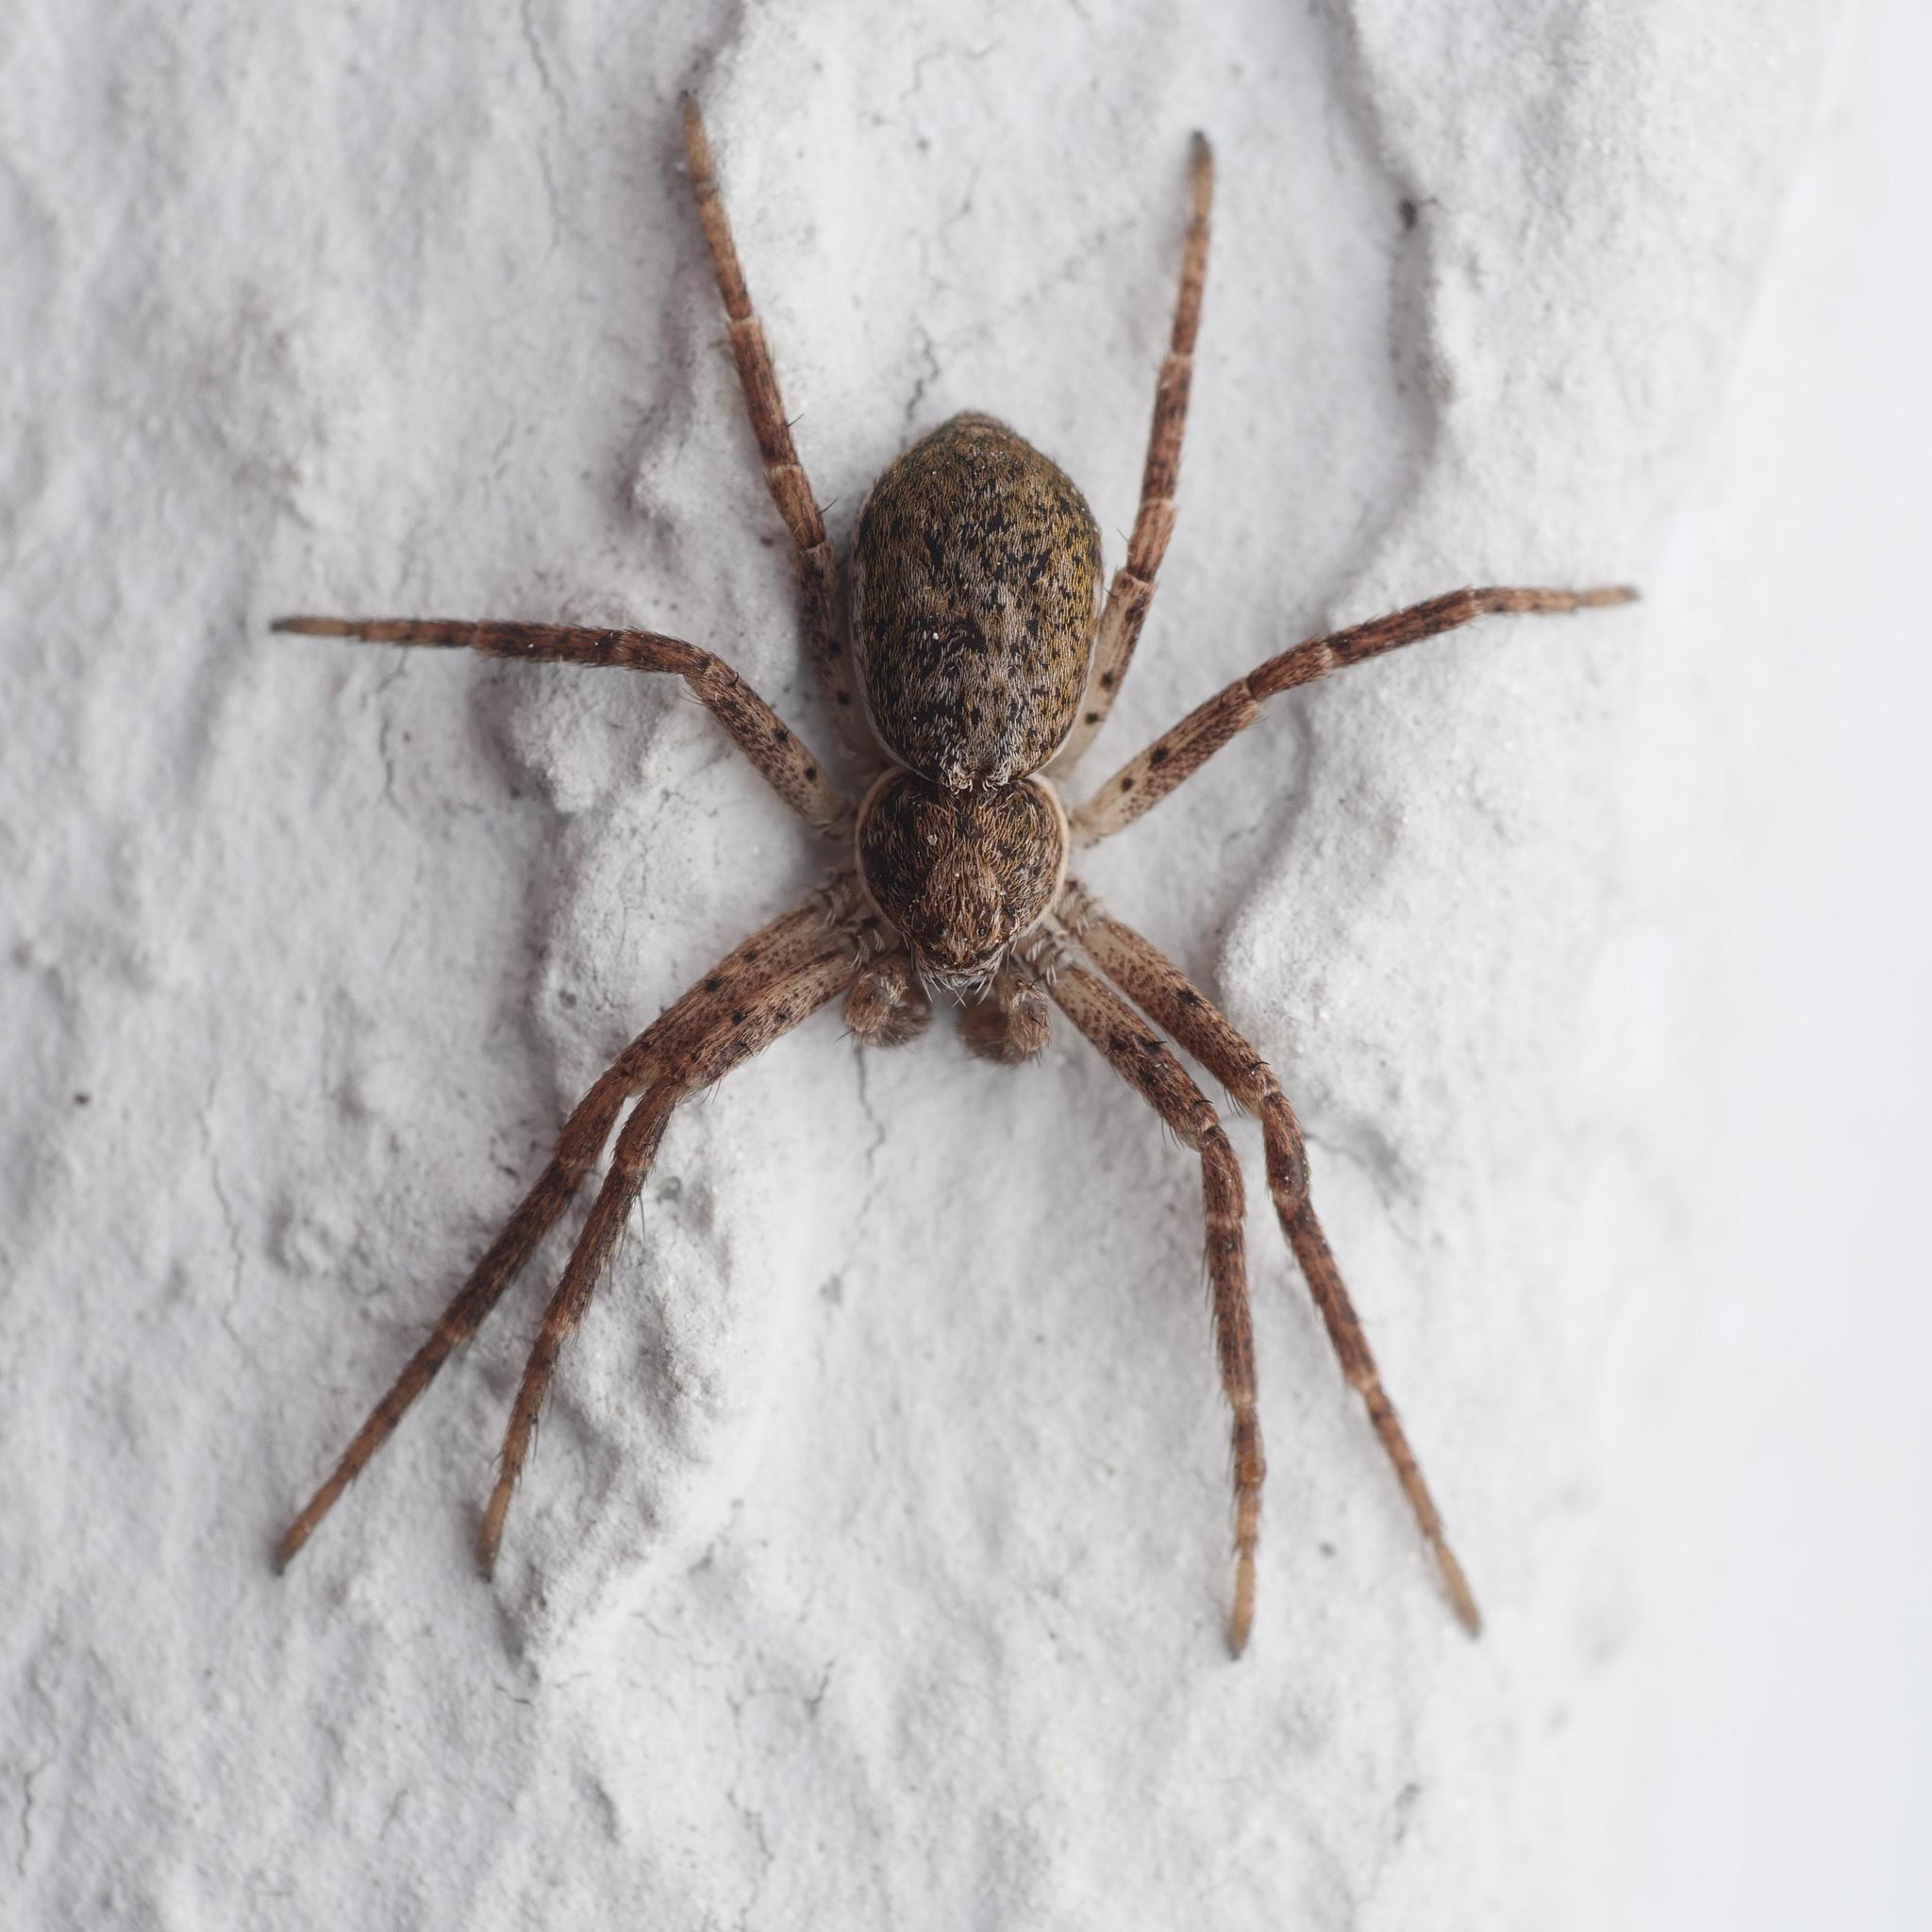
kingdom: Animalia
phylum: Arthropoda
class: Arachnida
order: Araneae
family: Philodromidae
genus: Philodromus
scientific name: Philodromus dispar
